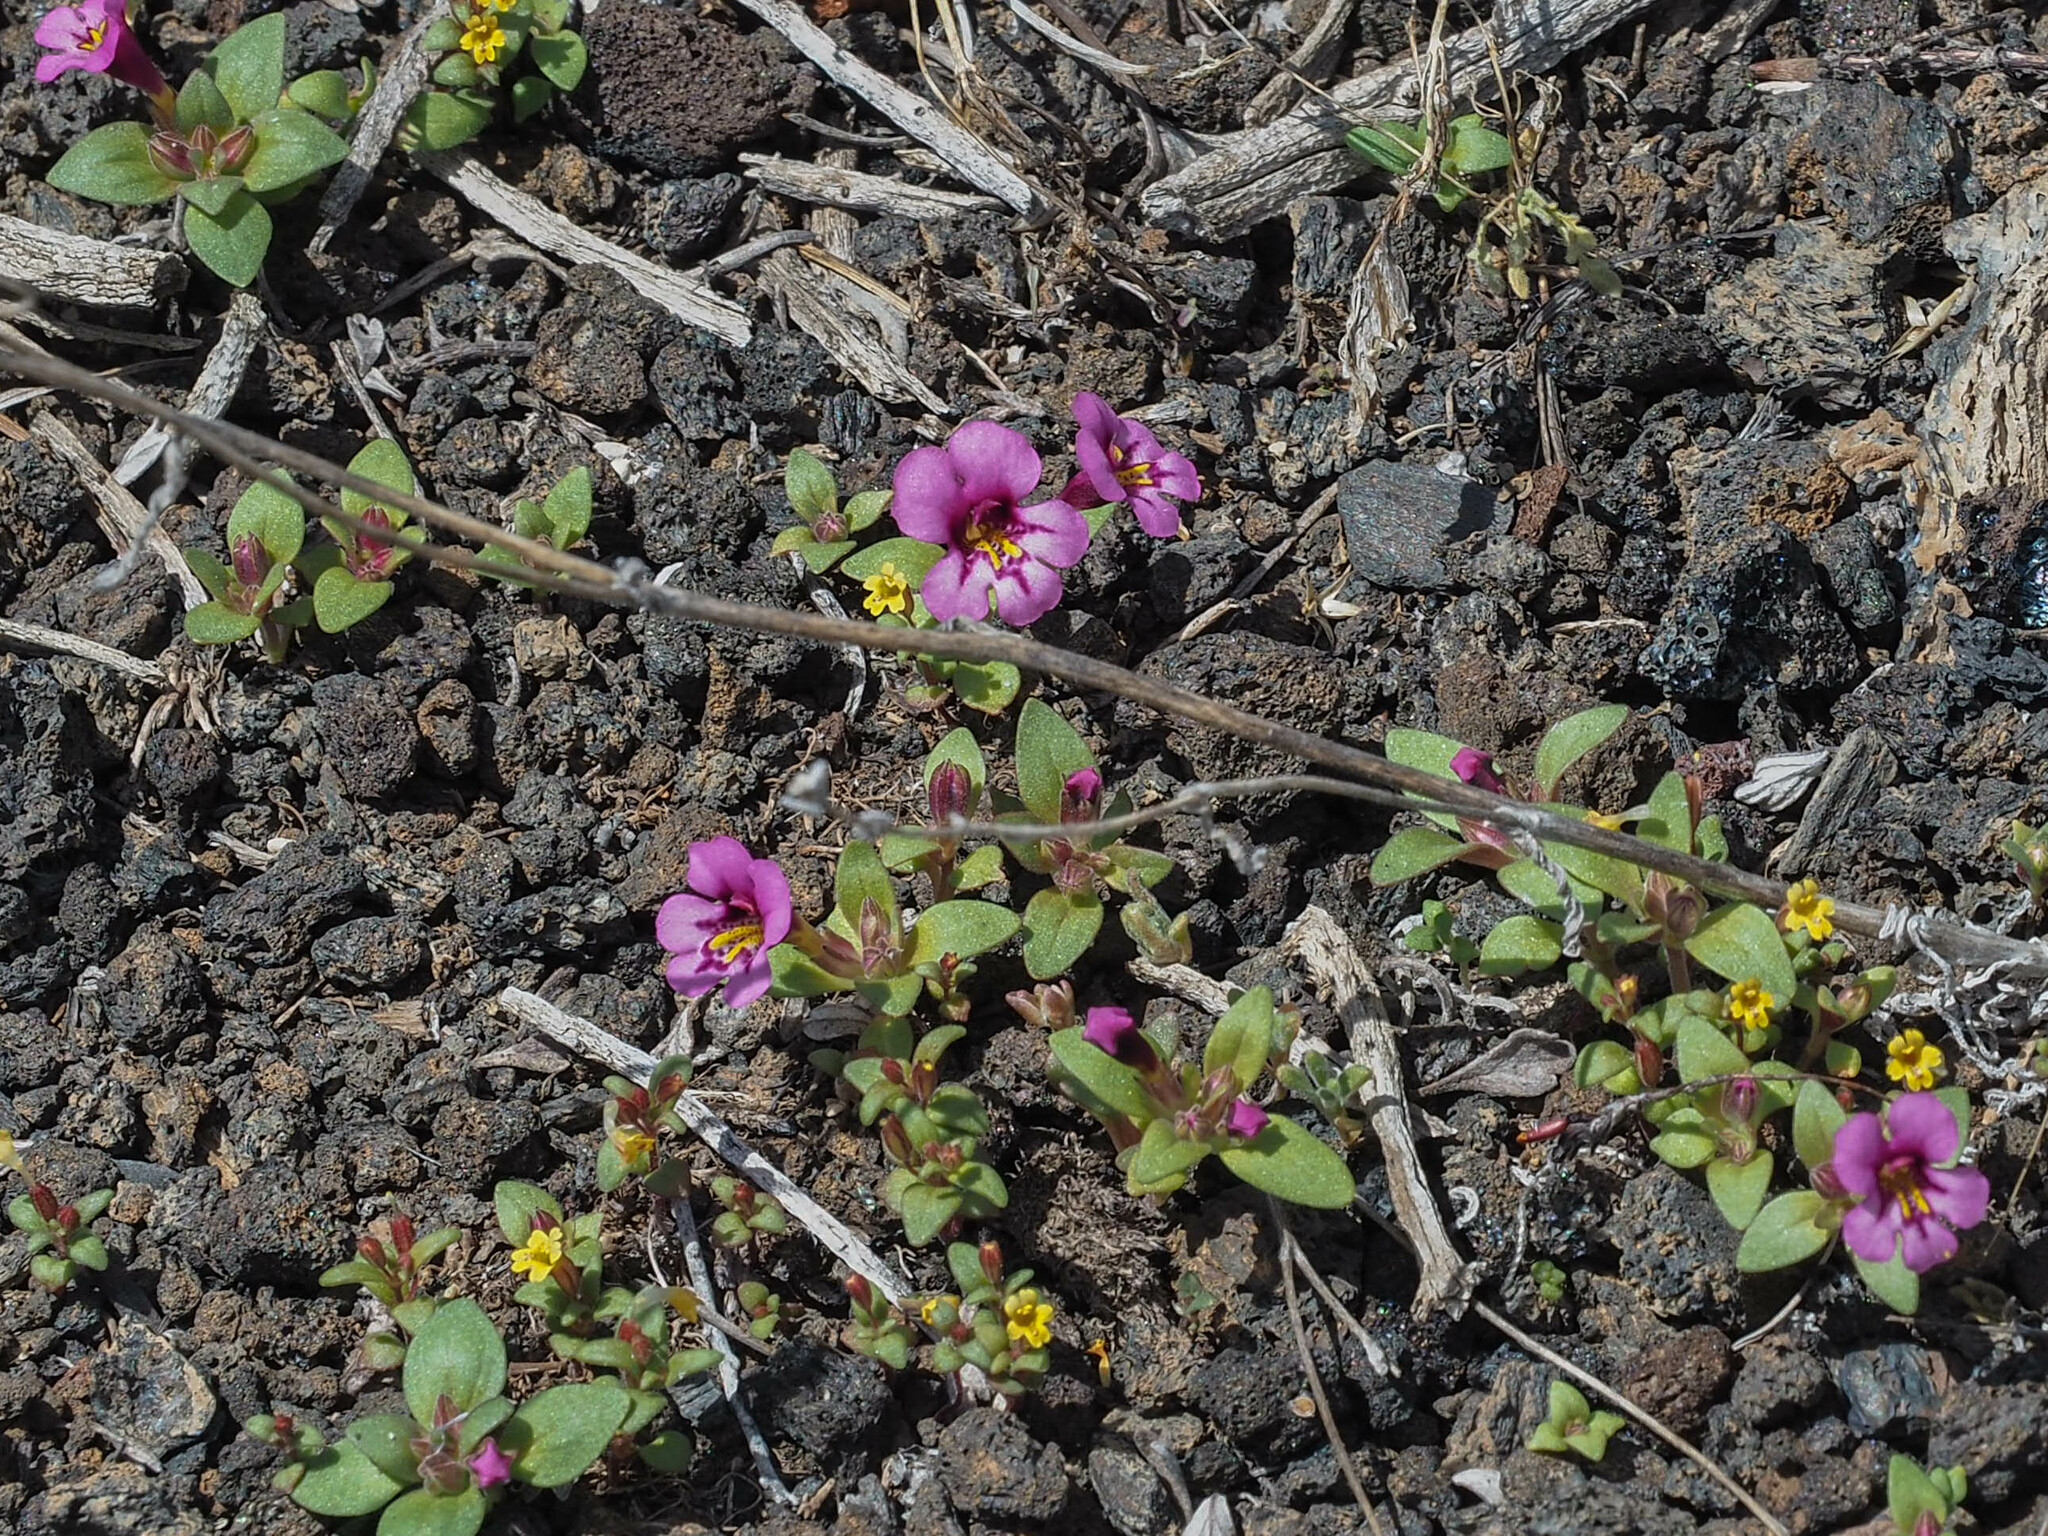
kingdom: Plantae
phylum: Tracheophyta
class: Magnoliopsida
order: Lamiales
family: Phrymaceae
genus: Diplacus
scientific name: Diplacus nanus
